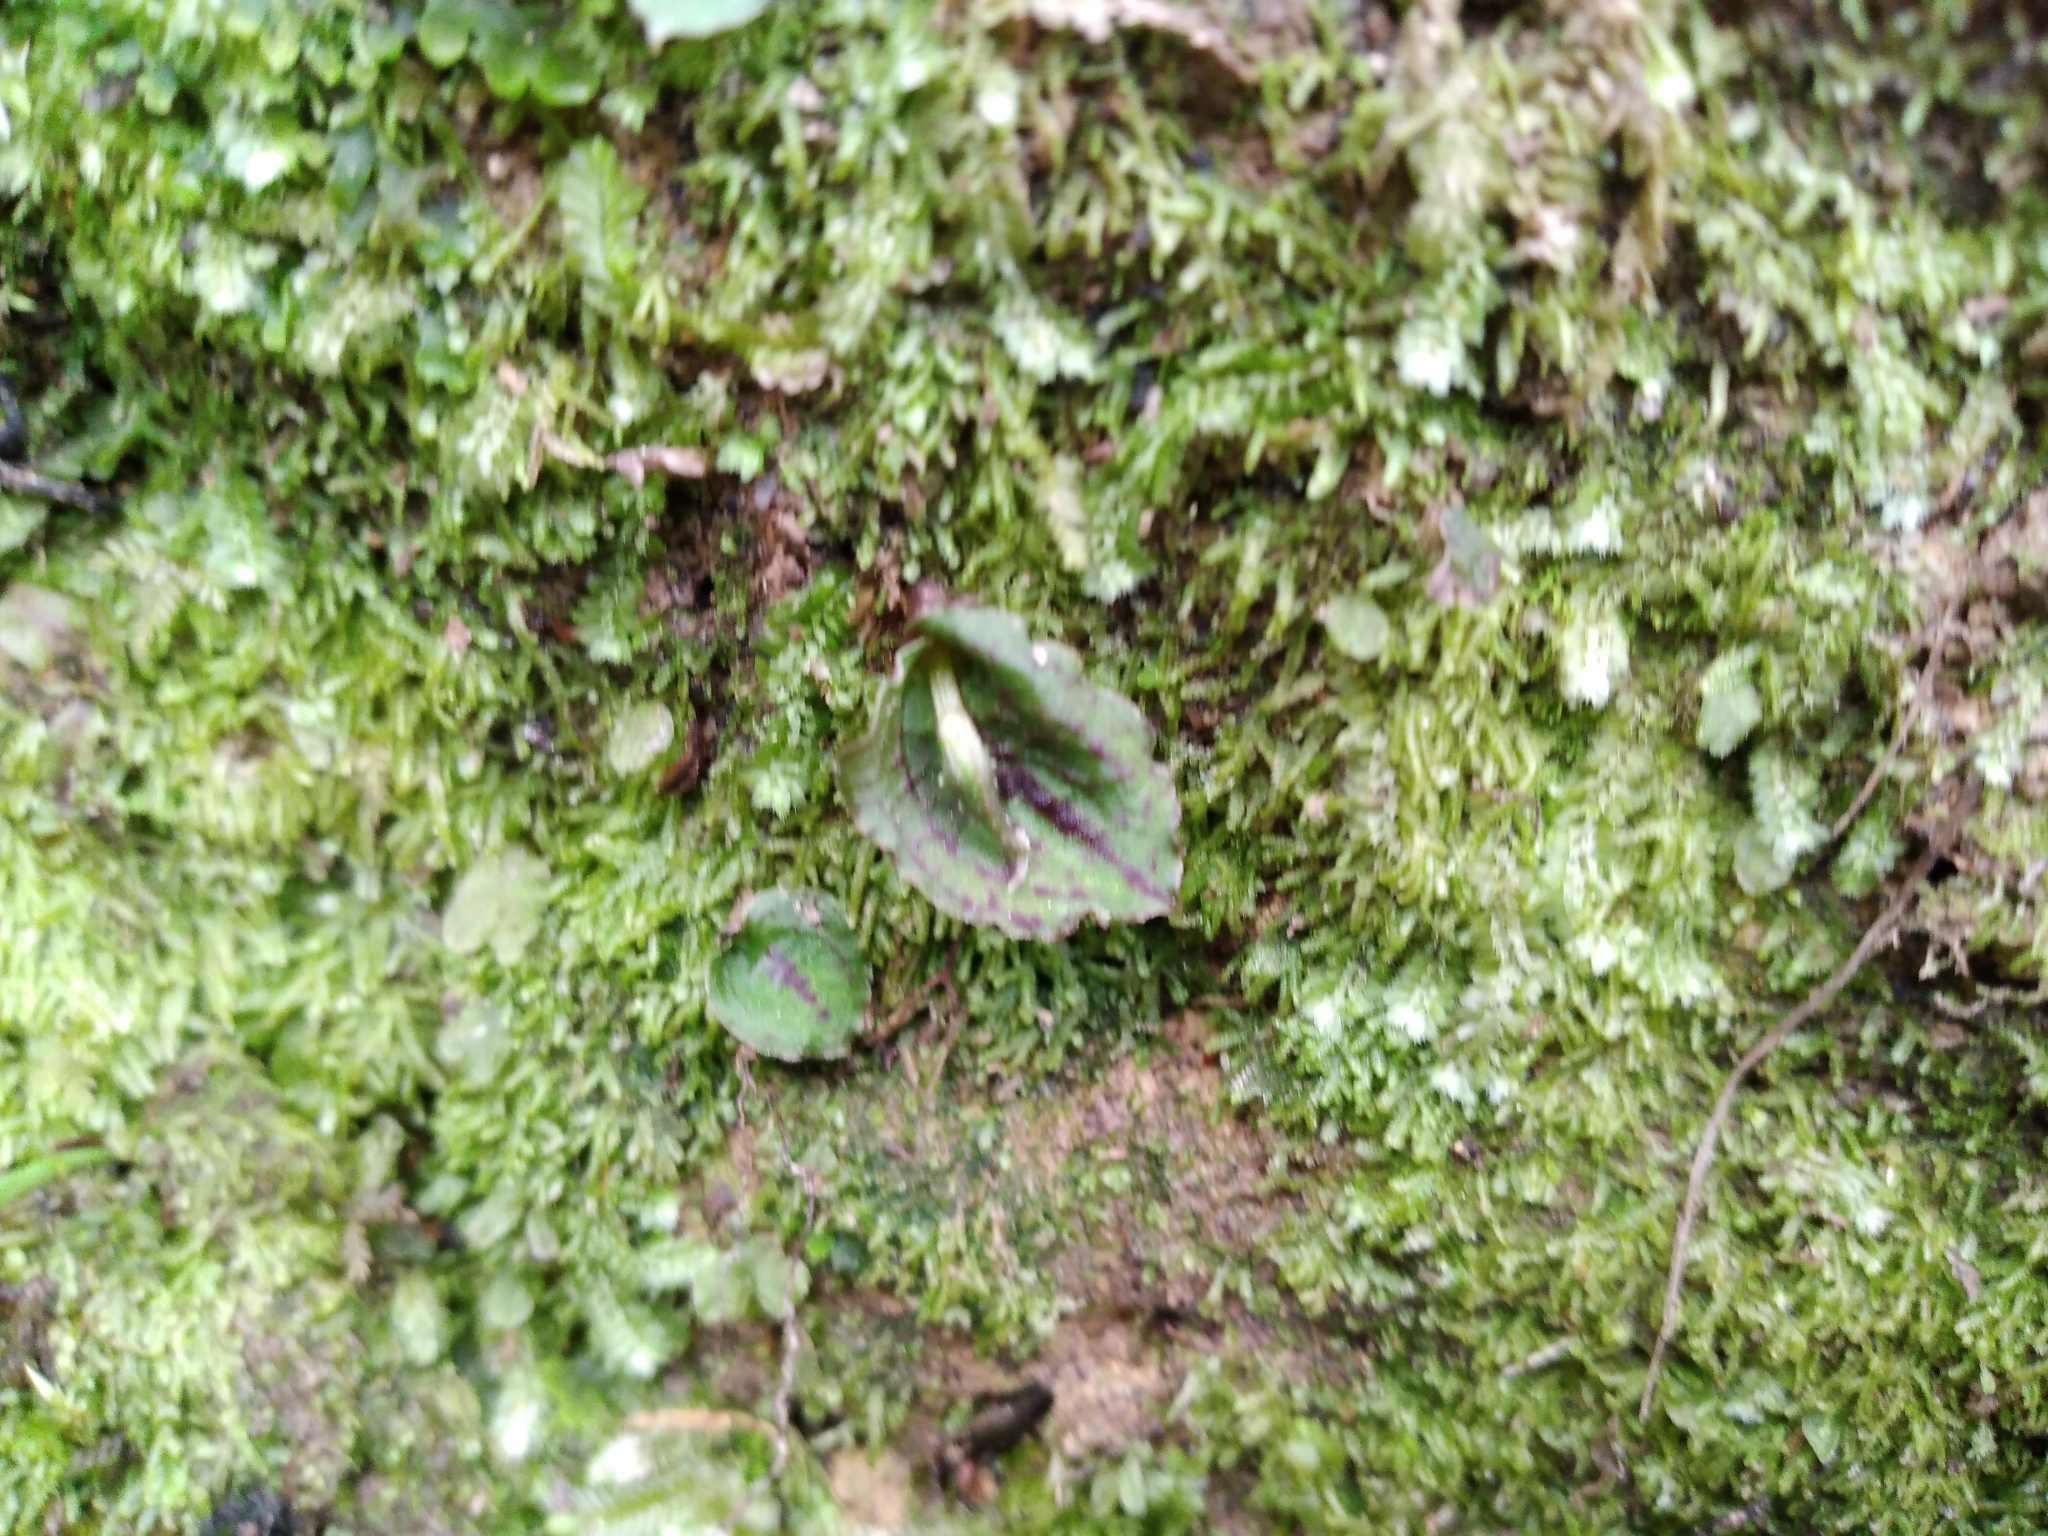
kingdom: Plantae
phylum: Tracheophyta
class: Liliopsida
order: Asparagales
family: Orchidaceae
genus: Corybas
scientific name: Corybas oblongus
